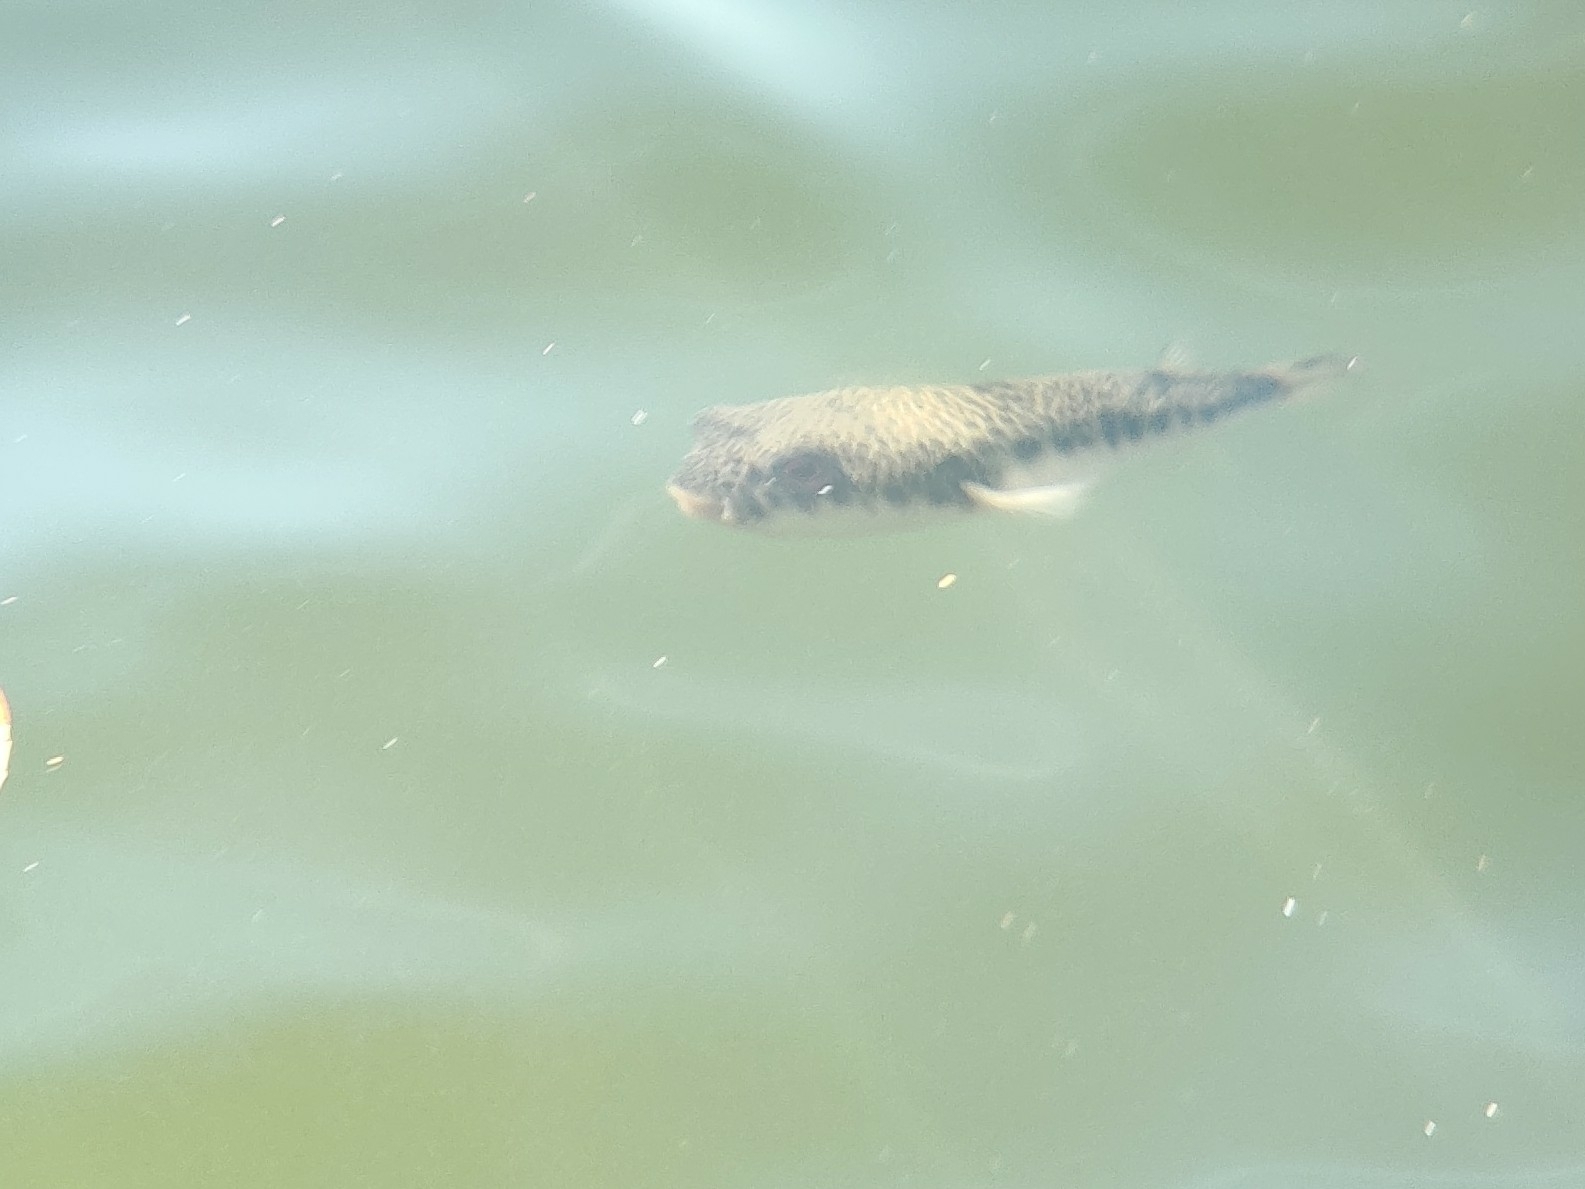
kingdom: Animalia
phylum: Chordata
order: Tetraodontiformes
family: Tetraodontidae
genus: Tetractenos
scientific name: Tetractenos hamiltoni
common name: Common toadfish
